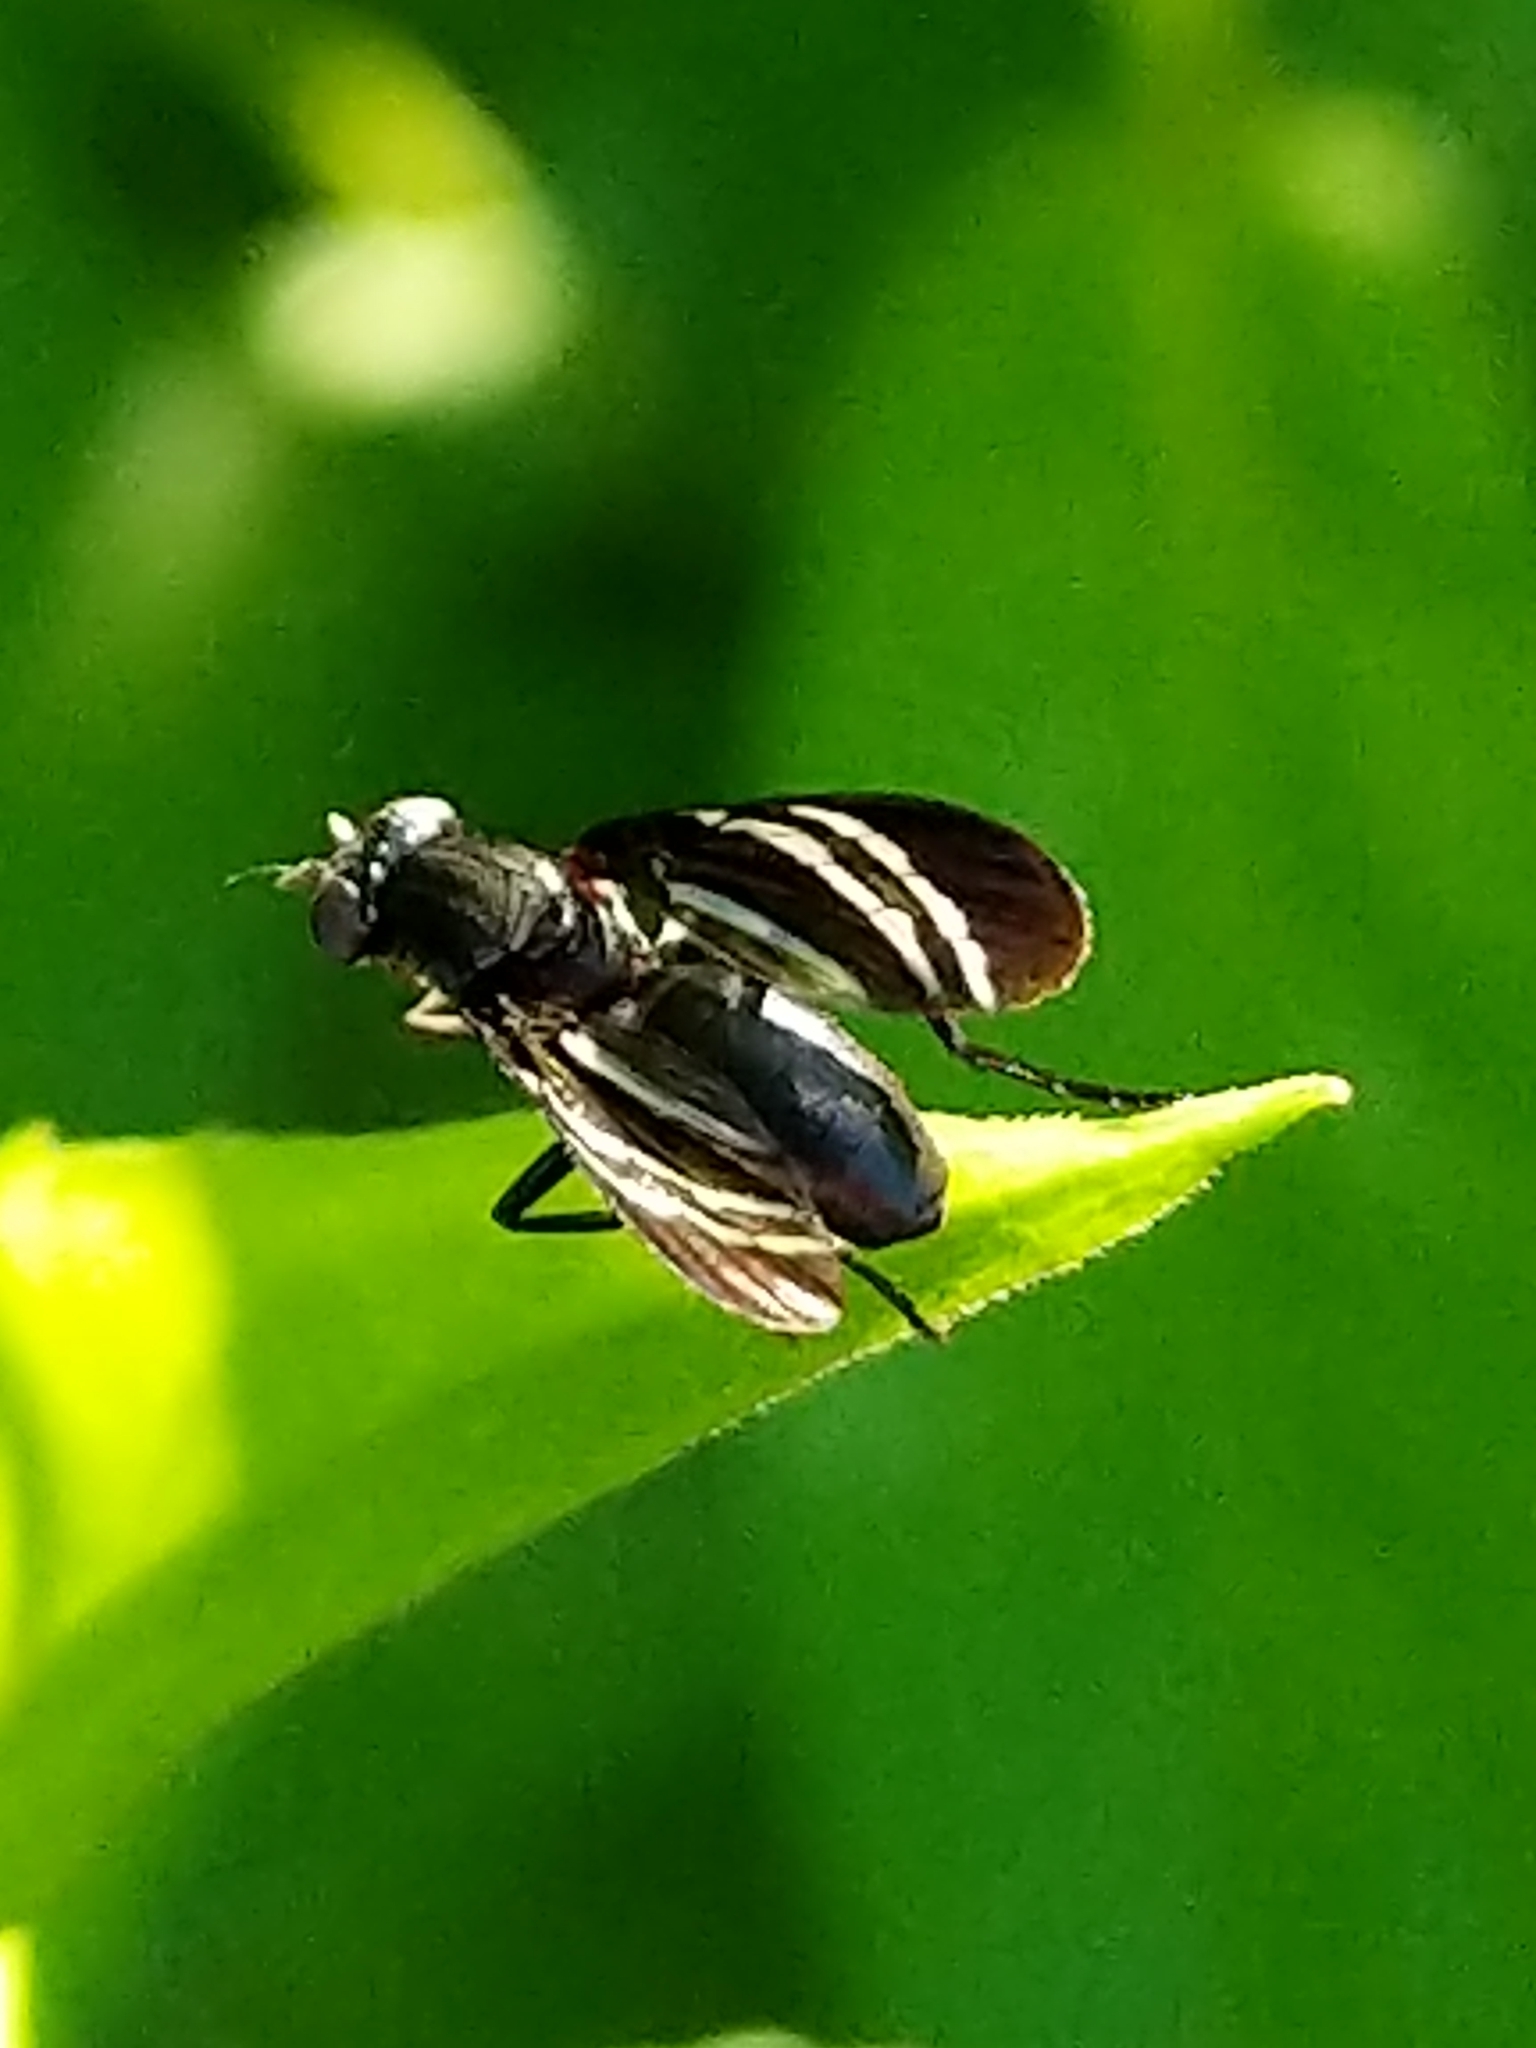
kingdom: Animalia
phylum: Arthropoda
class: Insecta
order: Diptera
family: Ulidiidae
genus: Tritoxa
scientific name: Tritoxa flexa
